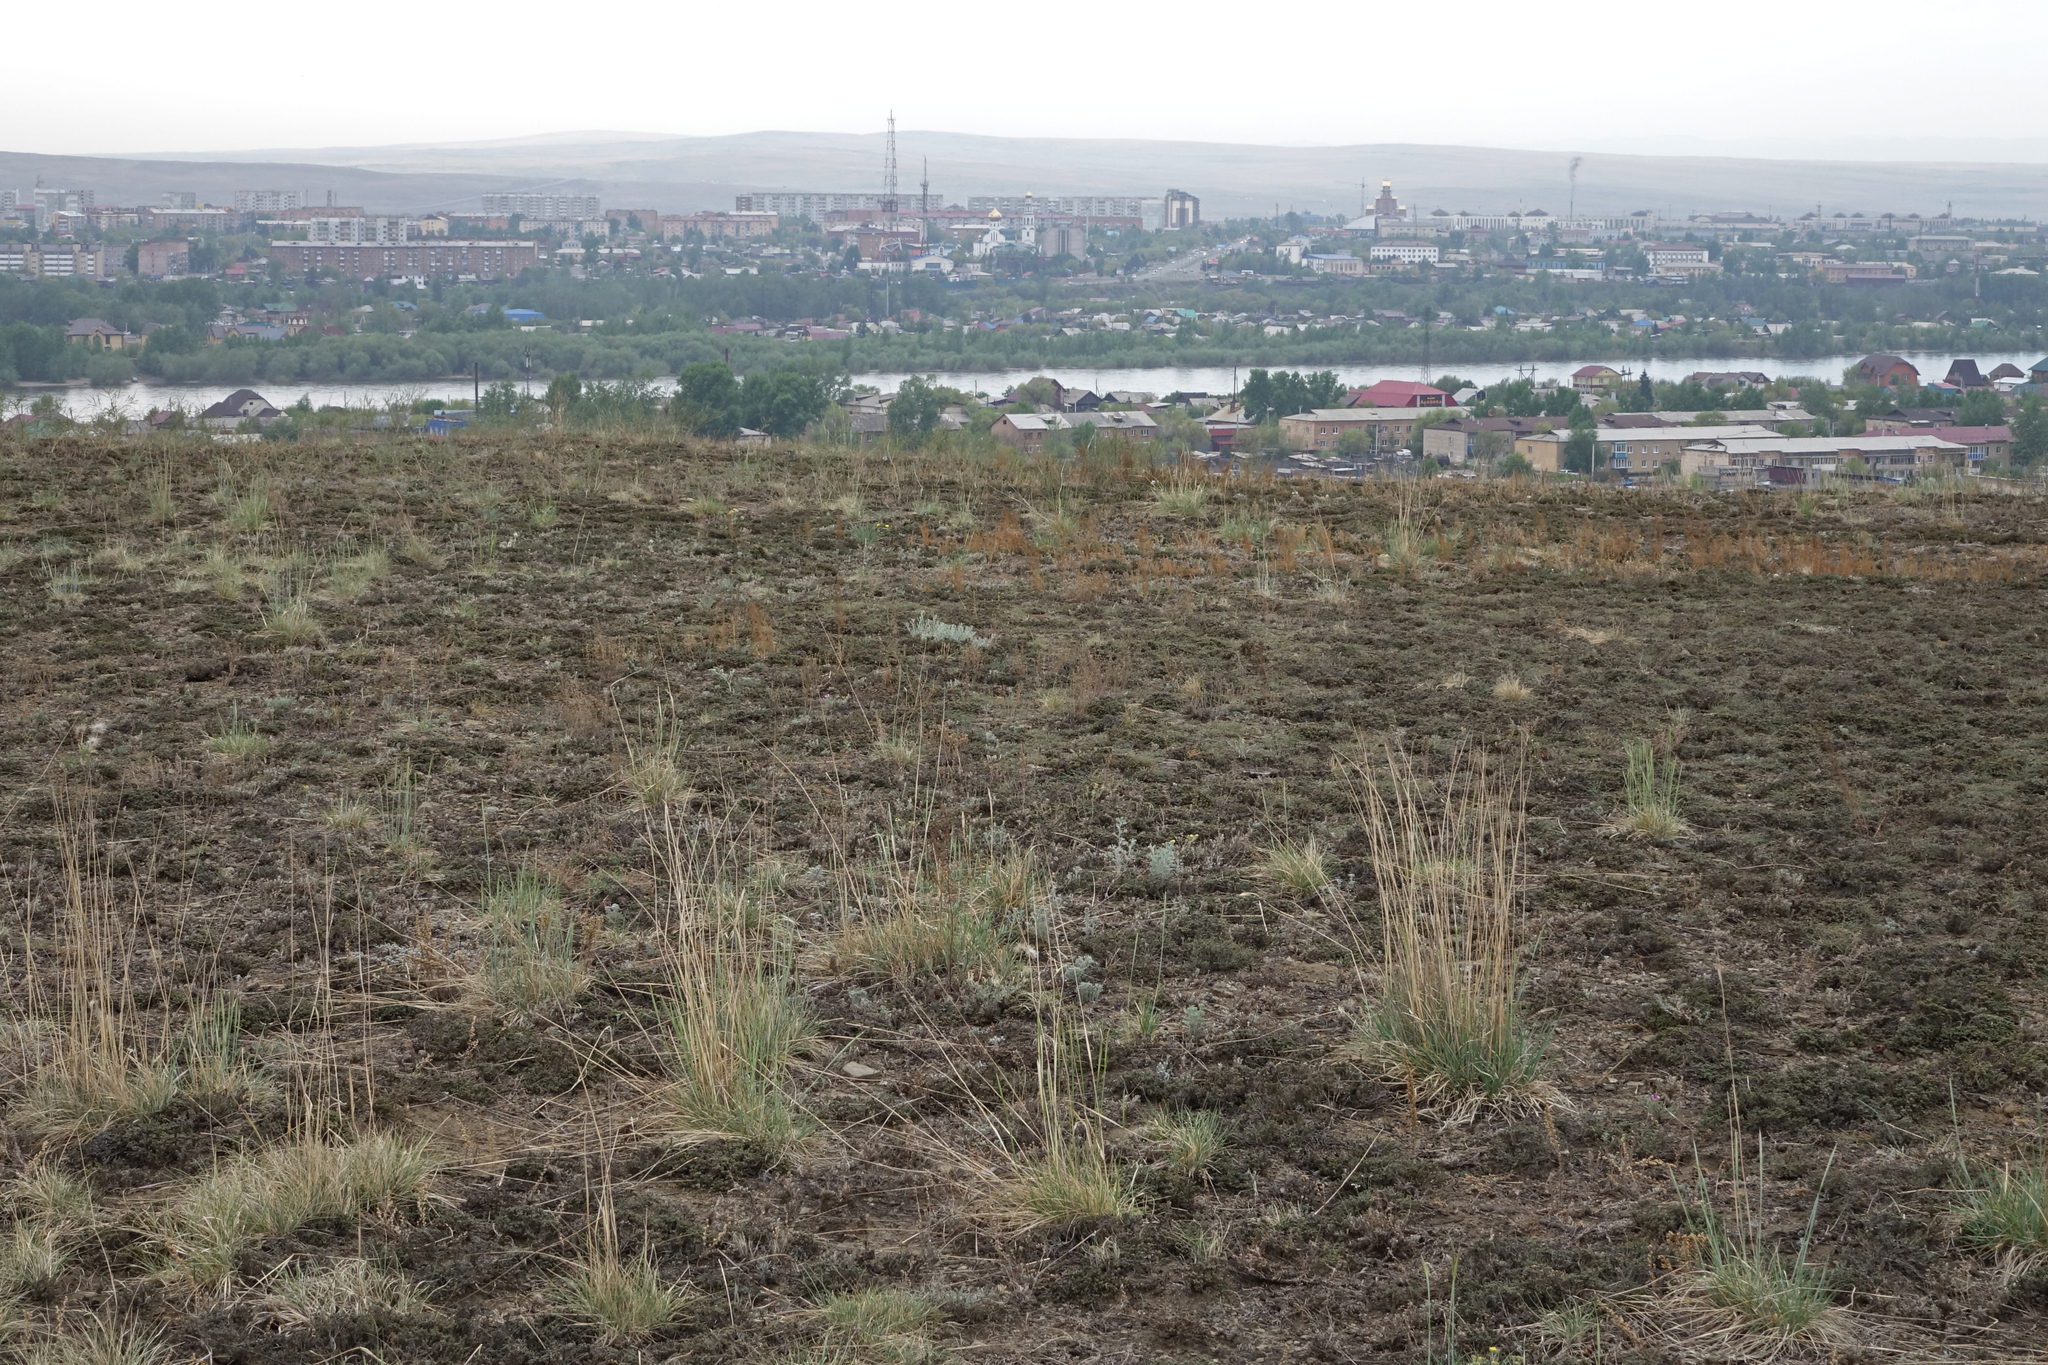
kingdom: Plantae
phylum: Tracheophyta
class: Magnoliopsida
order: Caryophyllales
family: Amaranthaceae
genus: Nanophyton
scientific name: Nanophyton grubovii
